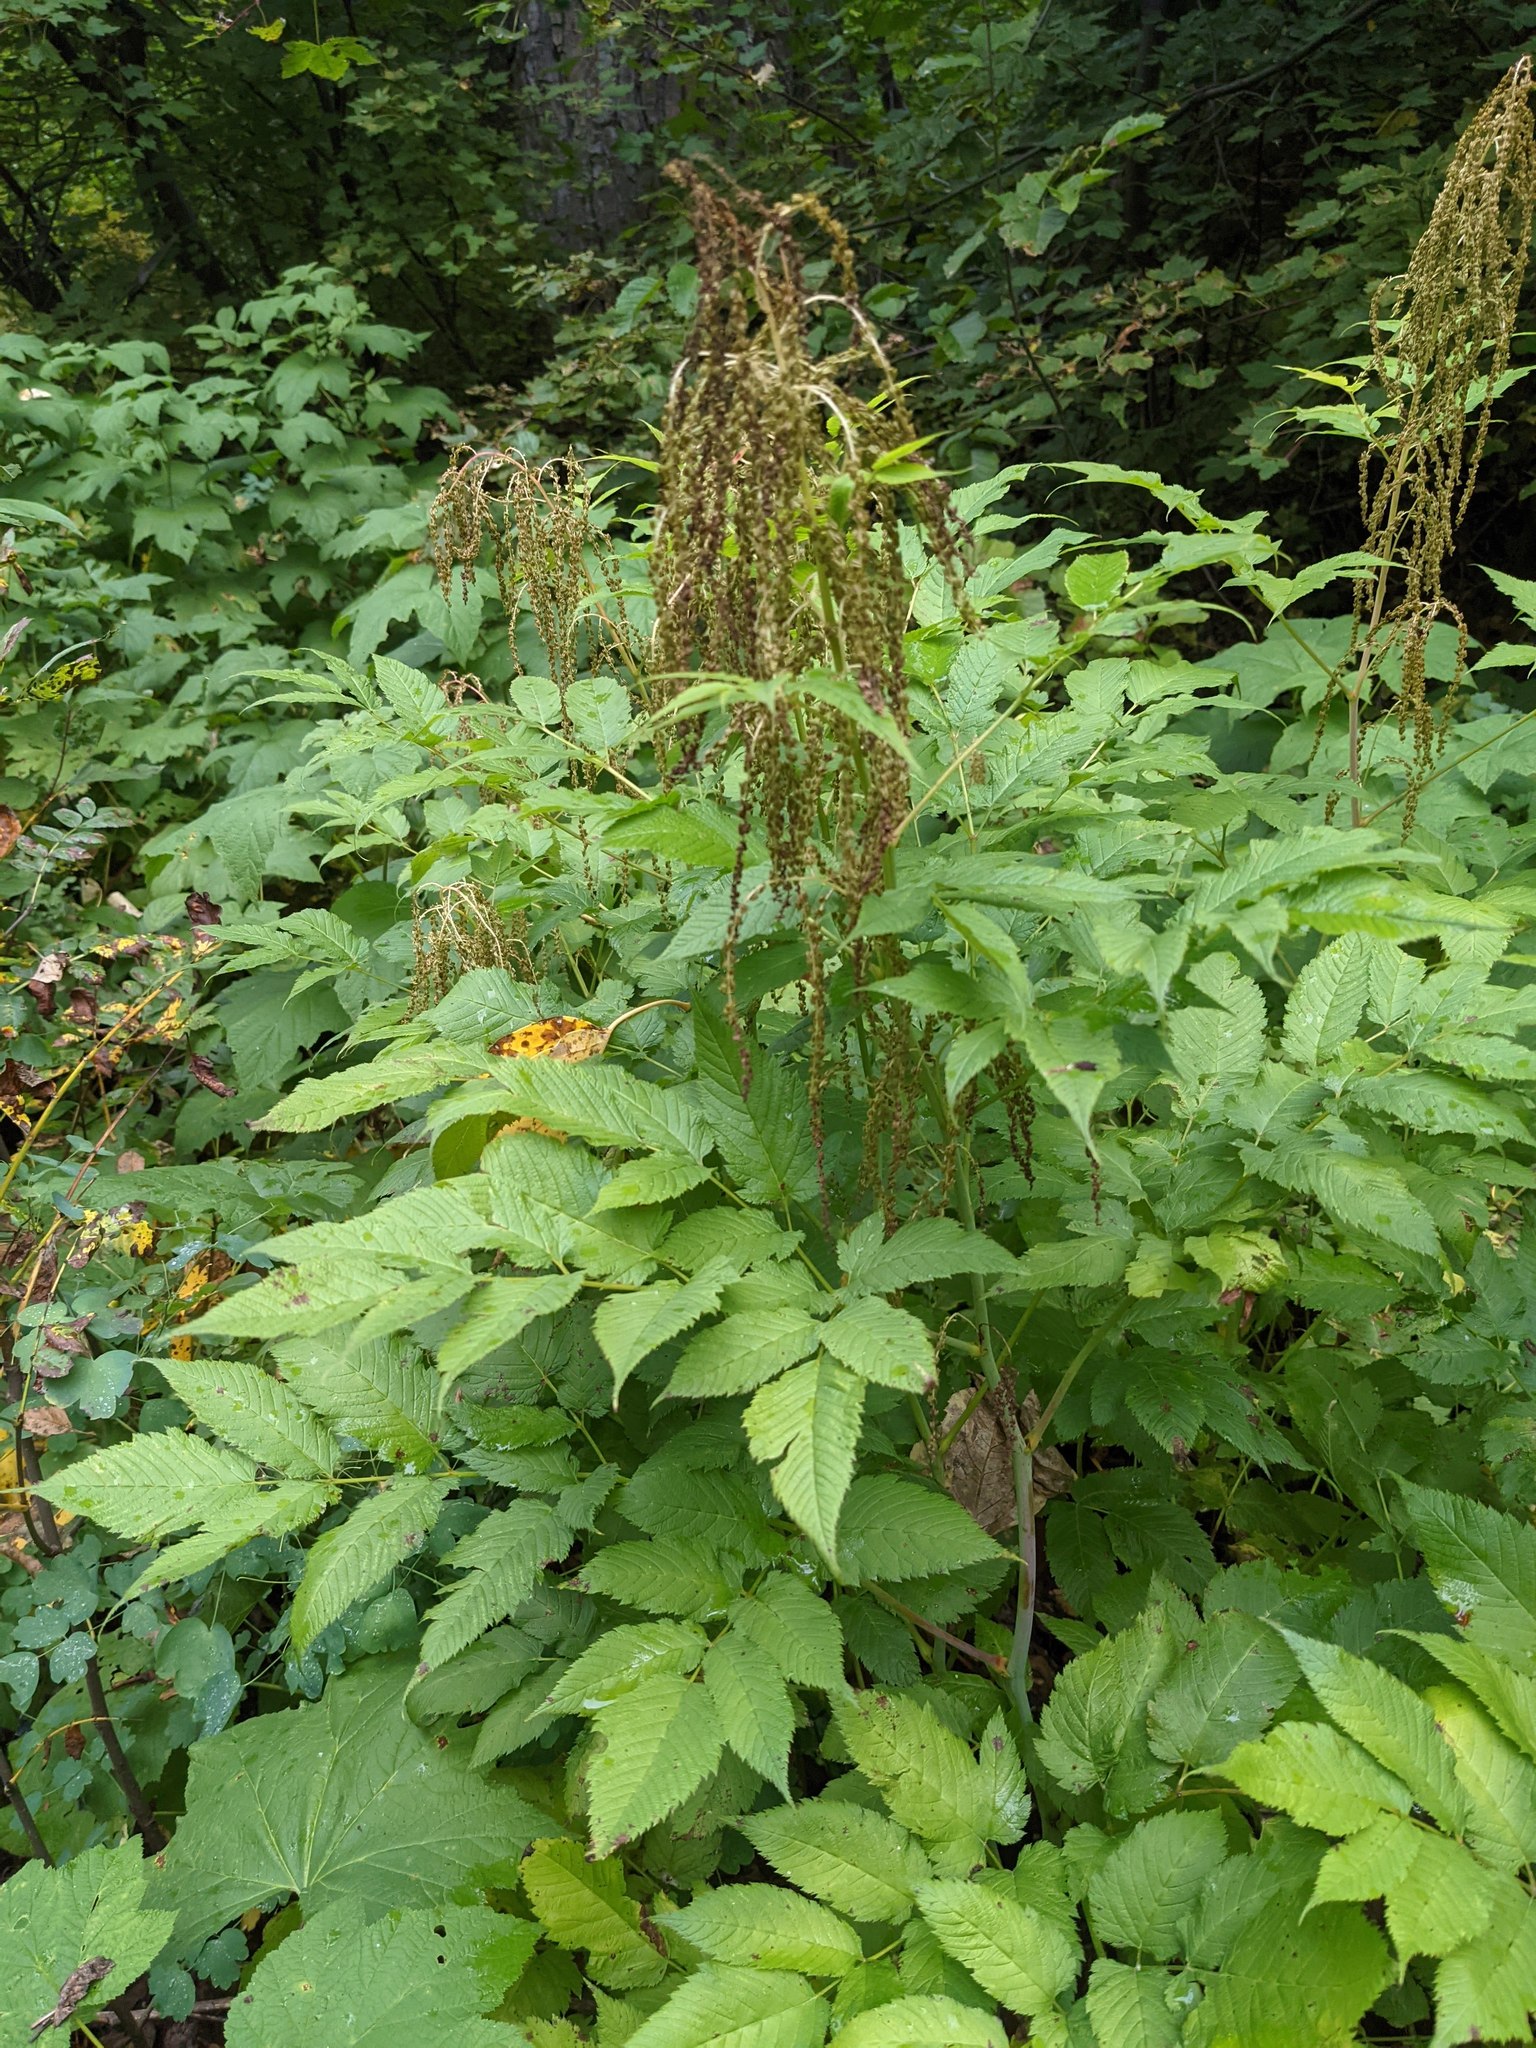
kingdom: Plantae
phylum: Tracheophyta
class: Magnoliopsida
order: Rosales
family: Rosaceae
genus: Aruncus
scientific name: Aruncus dioicus
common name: Buck's-beard
